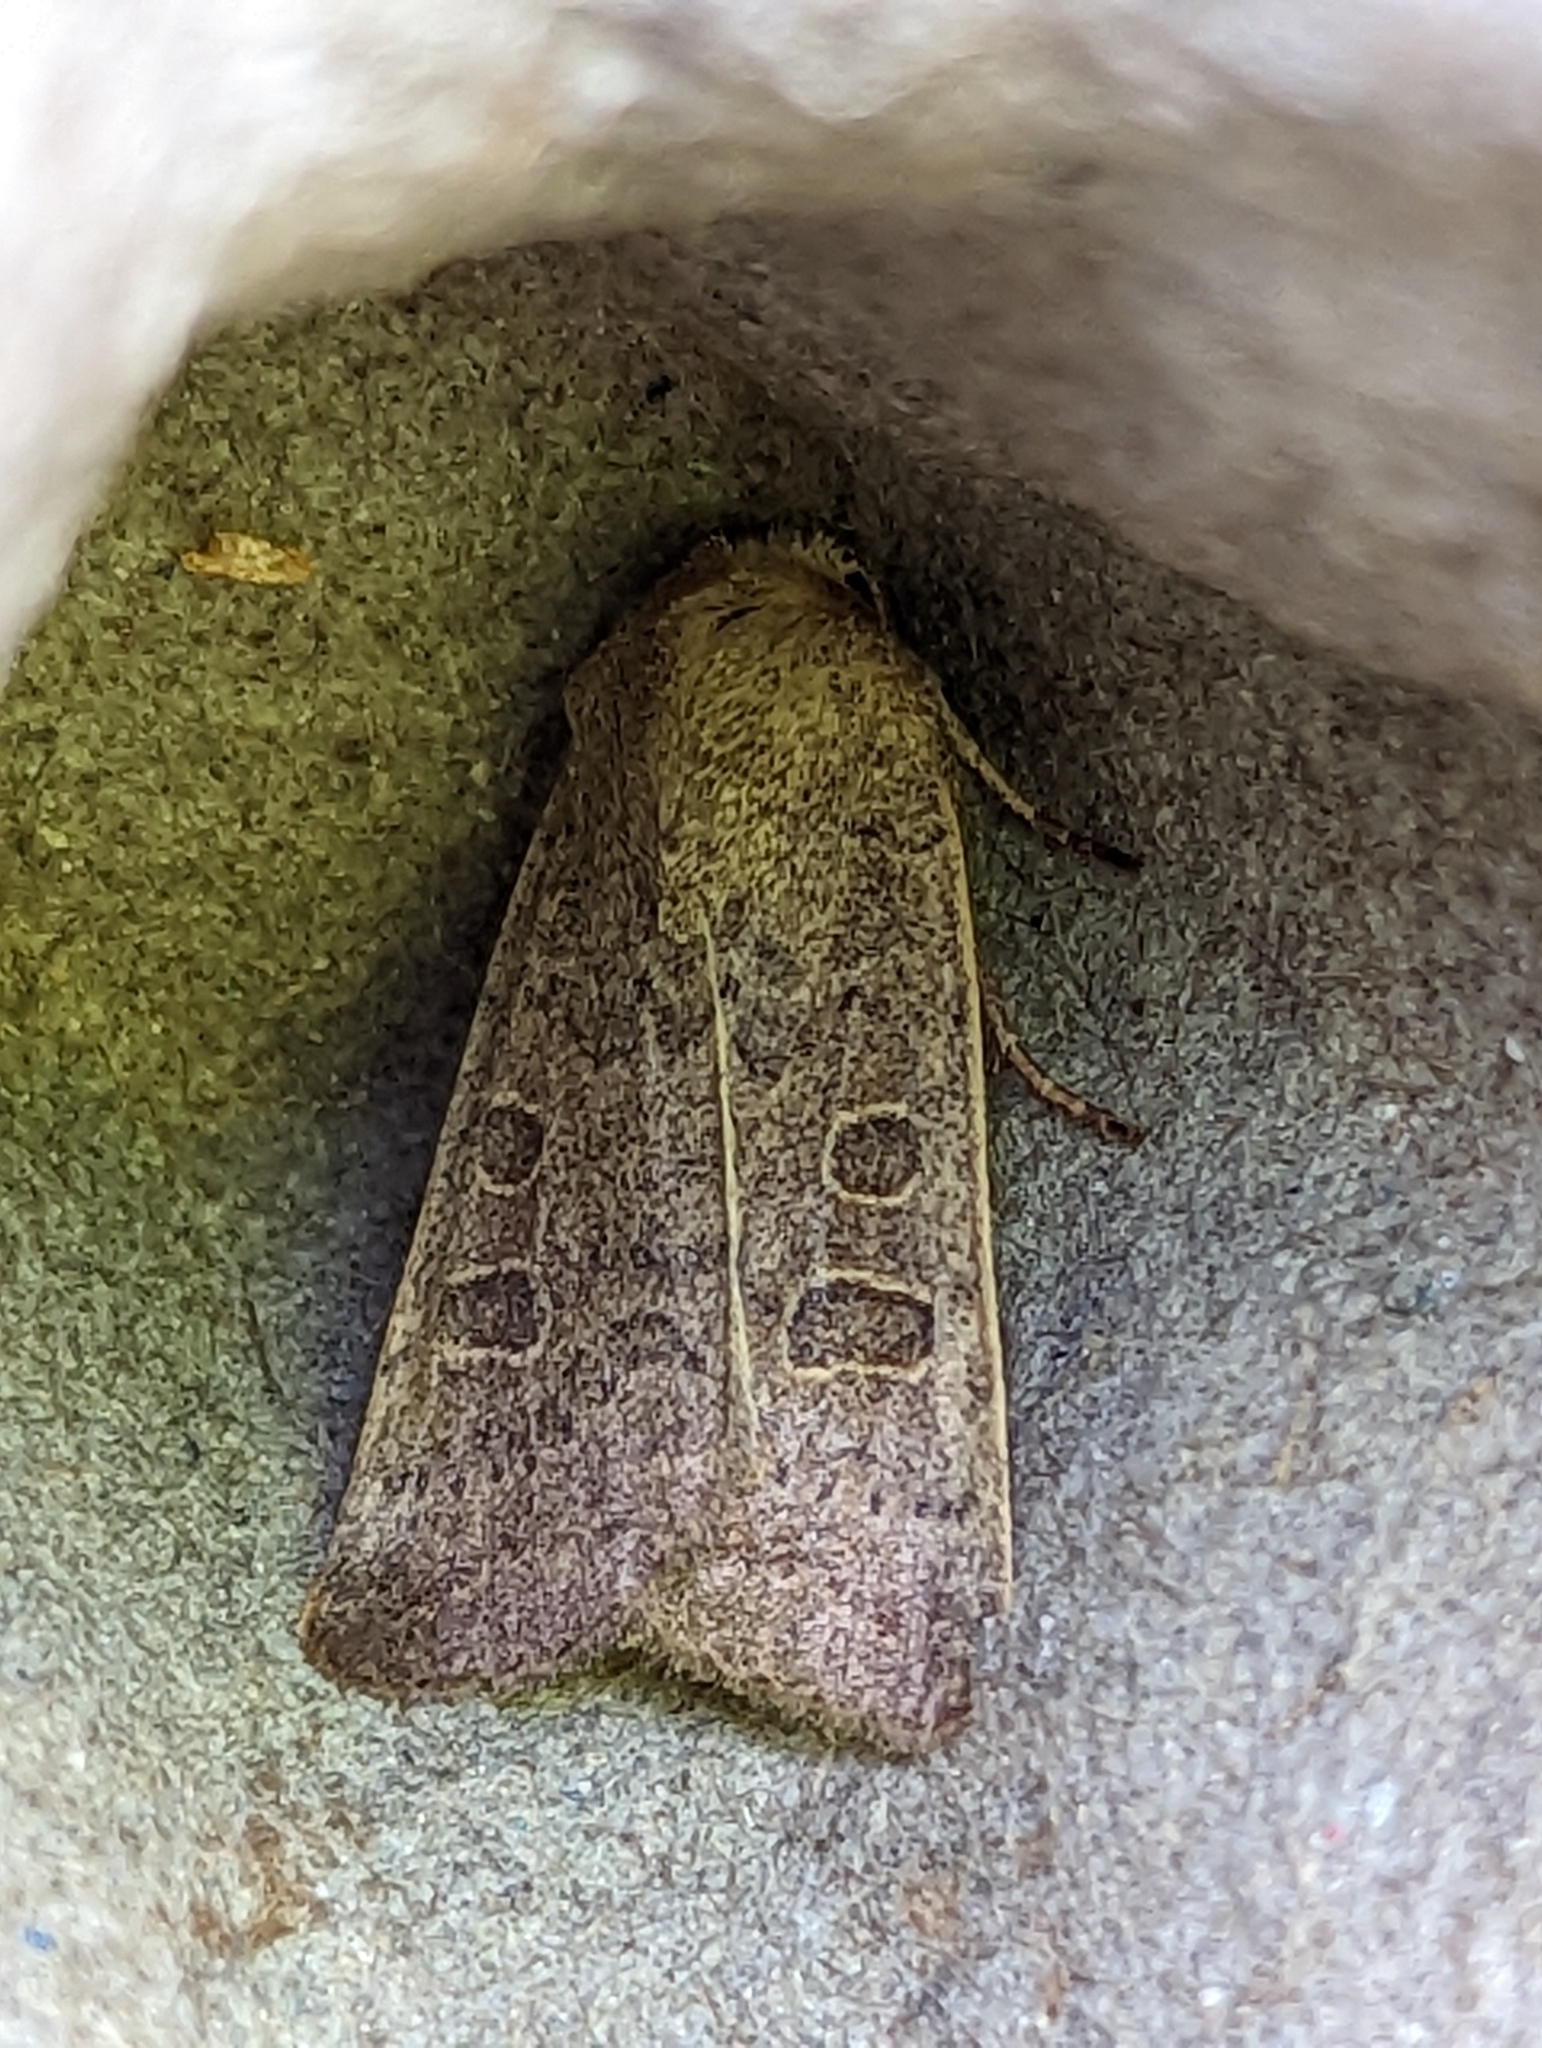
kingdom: Animalia
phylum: Arthropoda
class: Insecta
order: Lepidoptera
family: Noctuidae
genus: Hoplodrina
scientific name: Hoplodrina ambigua
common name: Vine's rustic
